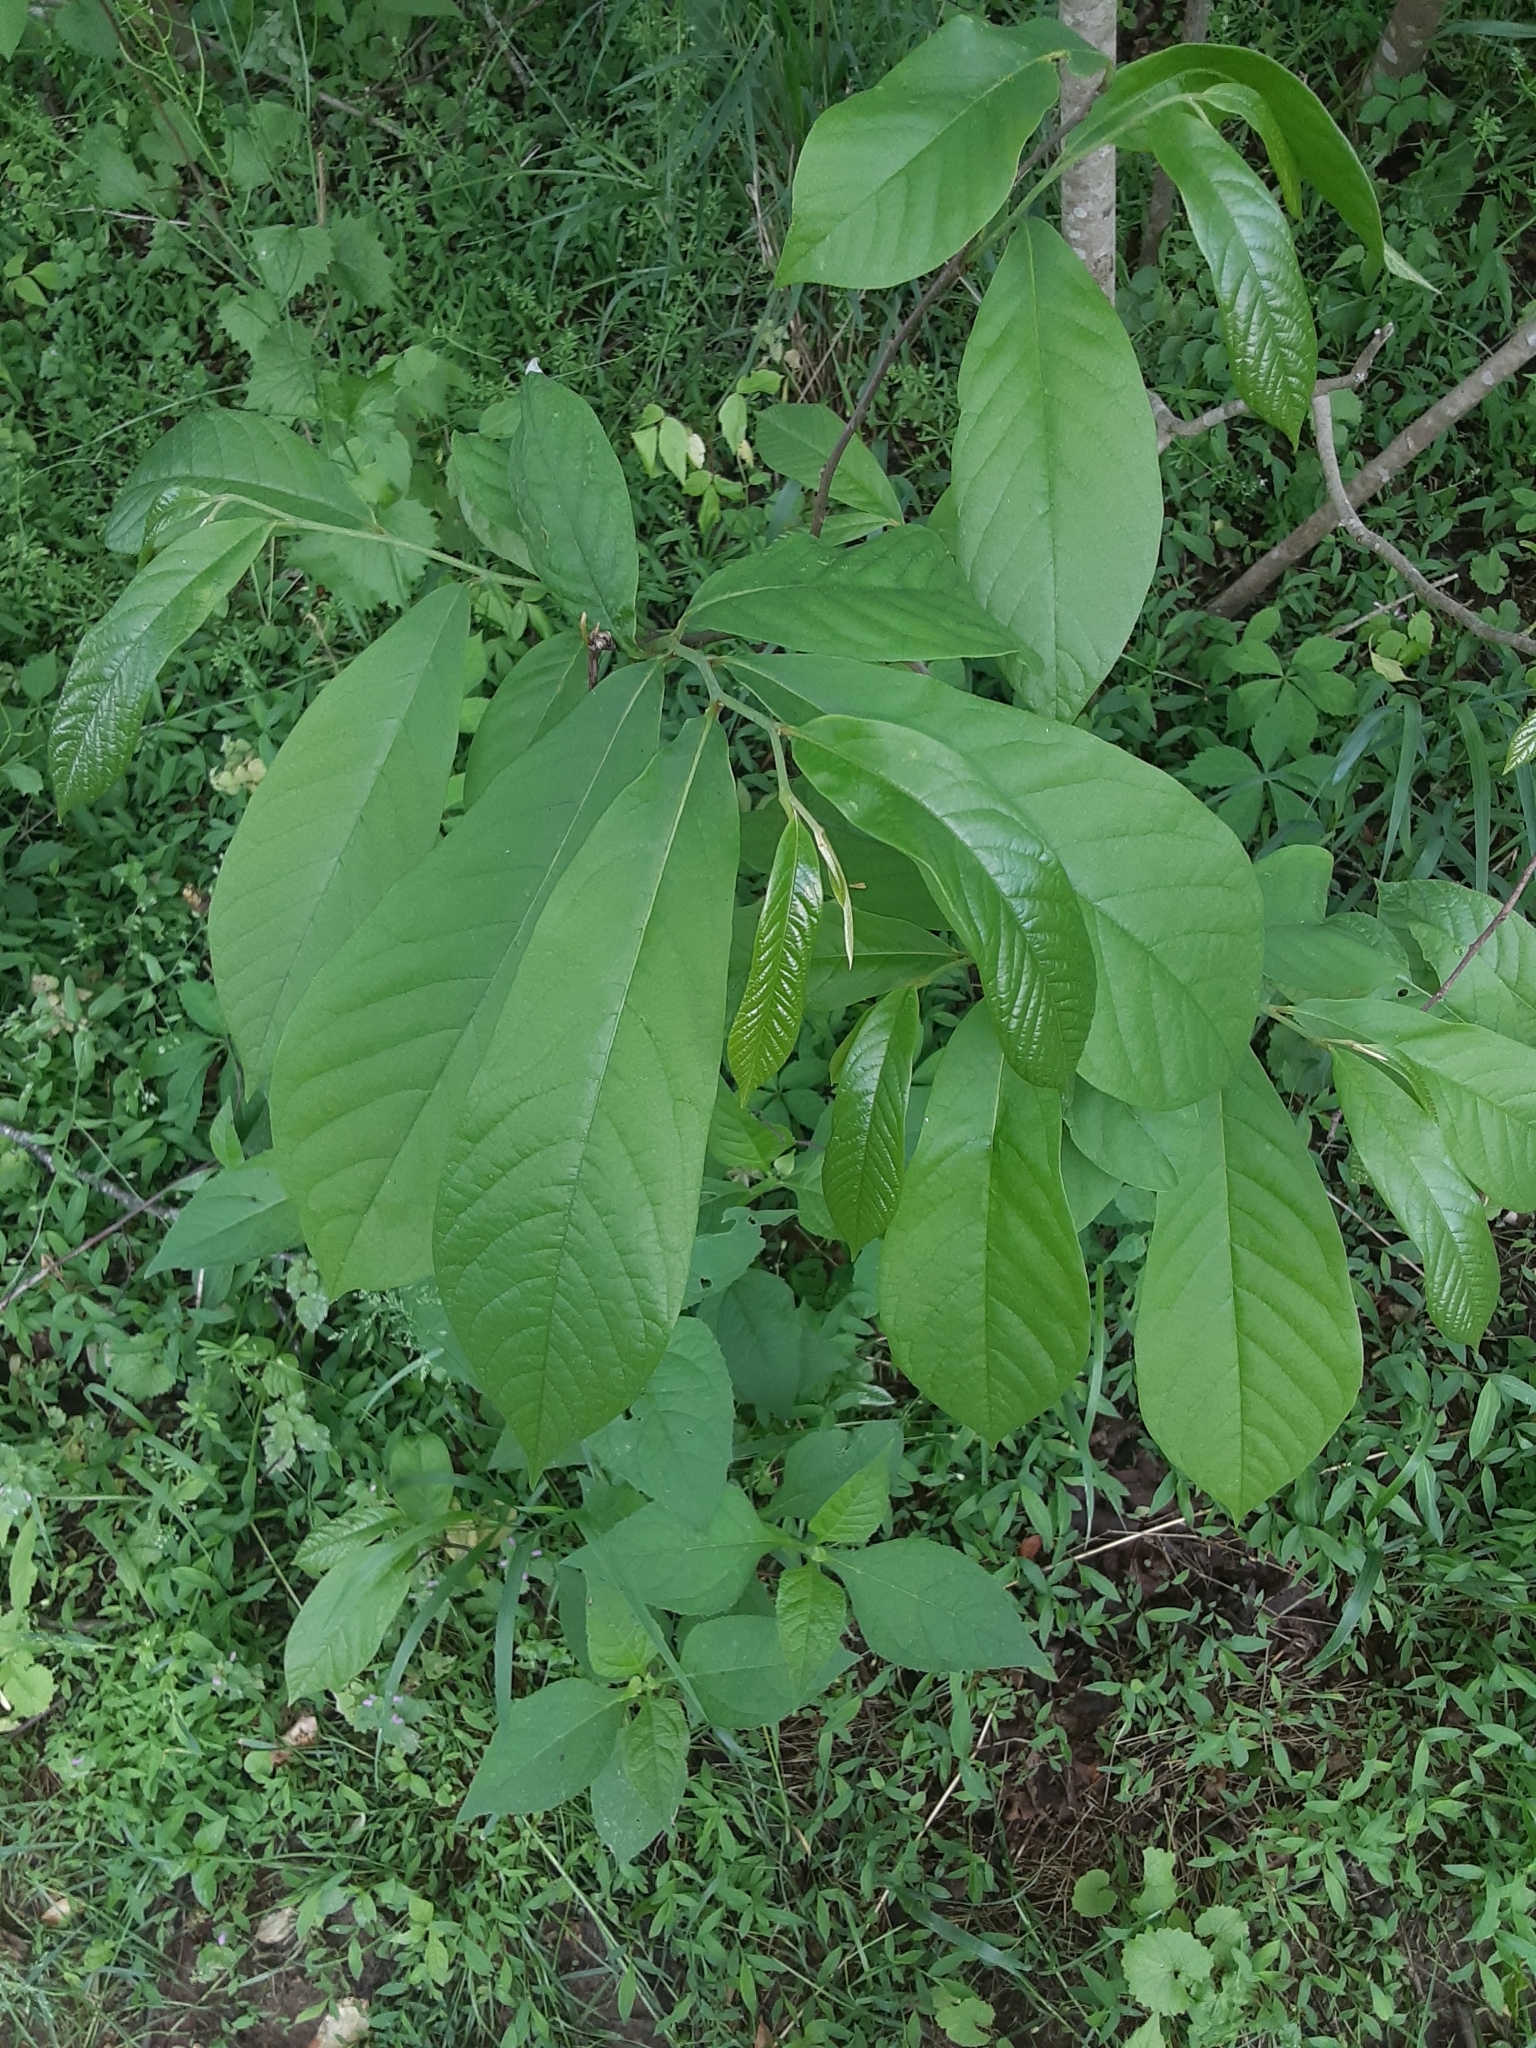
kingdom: Plantae
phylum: Tracheophyta
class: Magnoliopsida
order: Magnoliales
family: Annonaceae
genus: Asimina
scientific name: Asimina triloba
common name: Dog-banana
